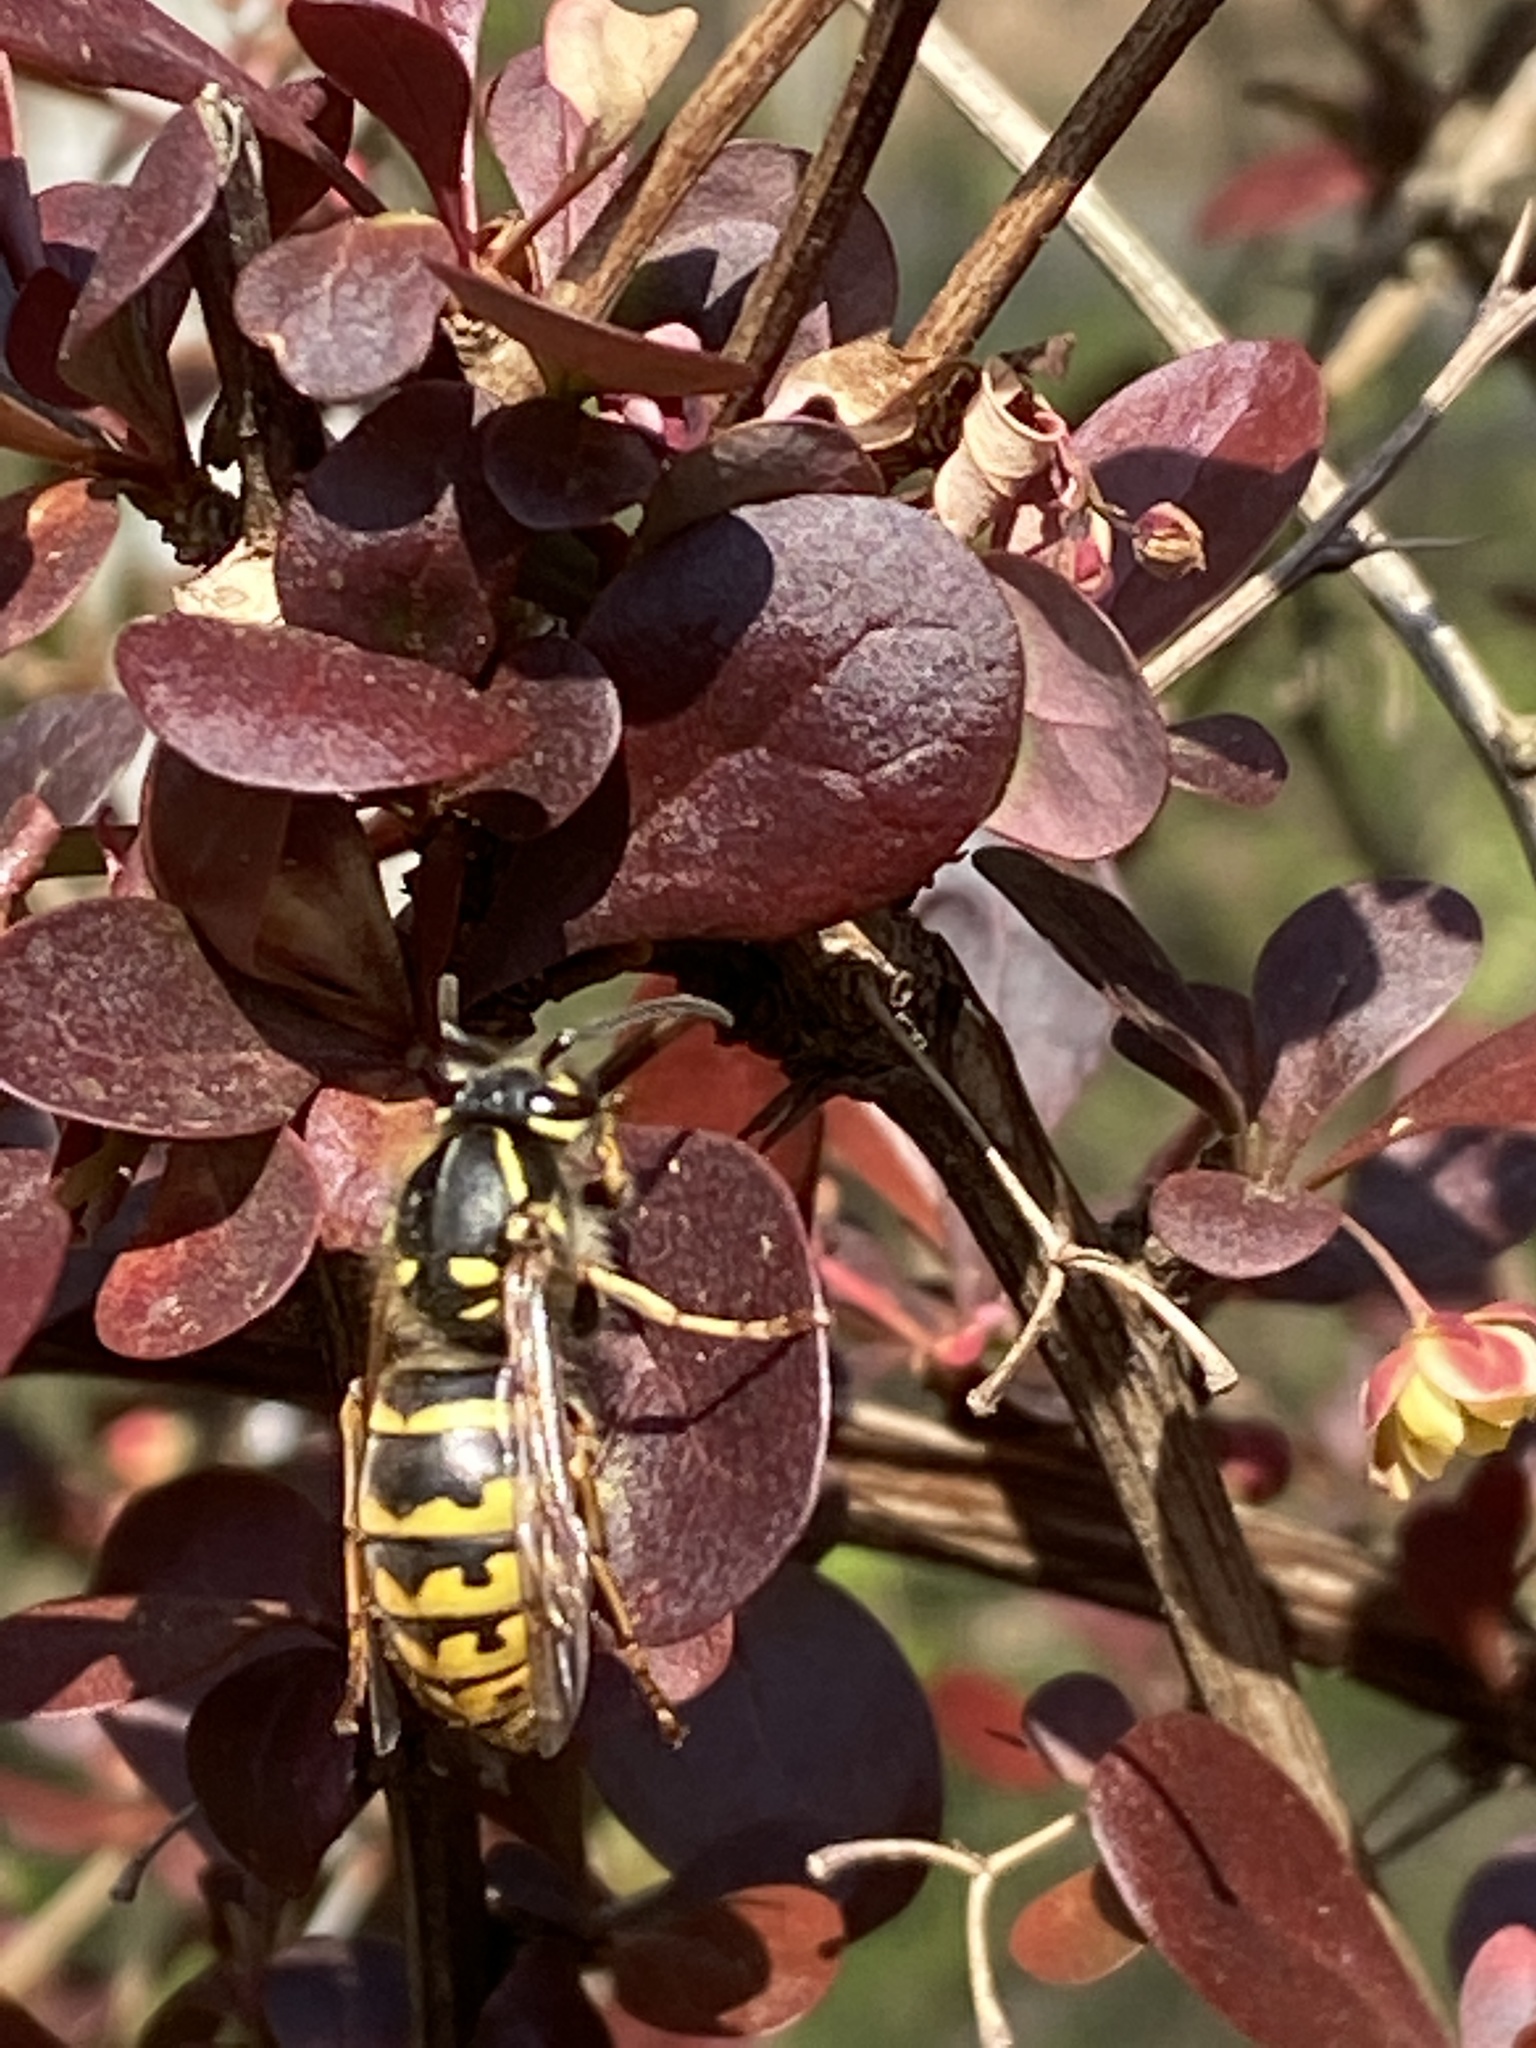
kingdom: Animalia
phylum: Arthropoda
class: Insecta
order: Hymenoptera
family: Vespidae
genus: Vespula
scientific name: Vespula vulgaris
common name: Common wasp
